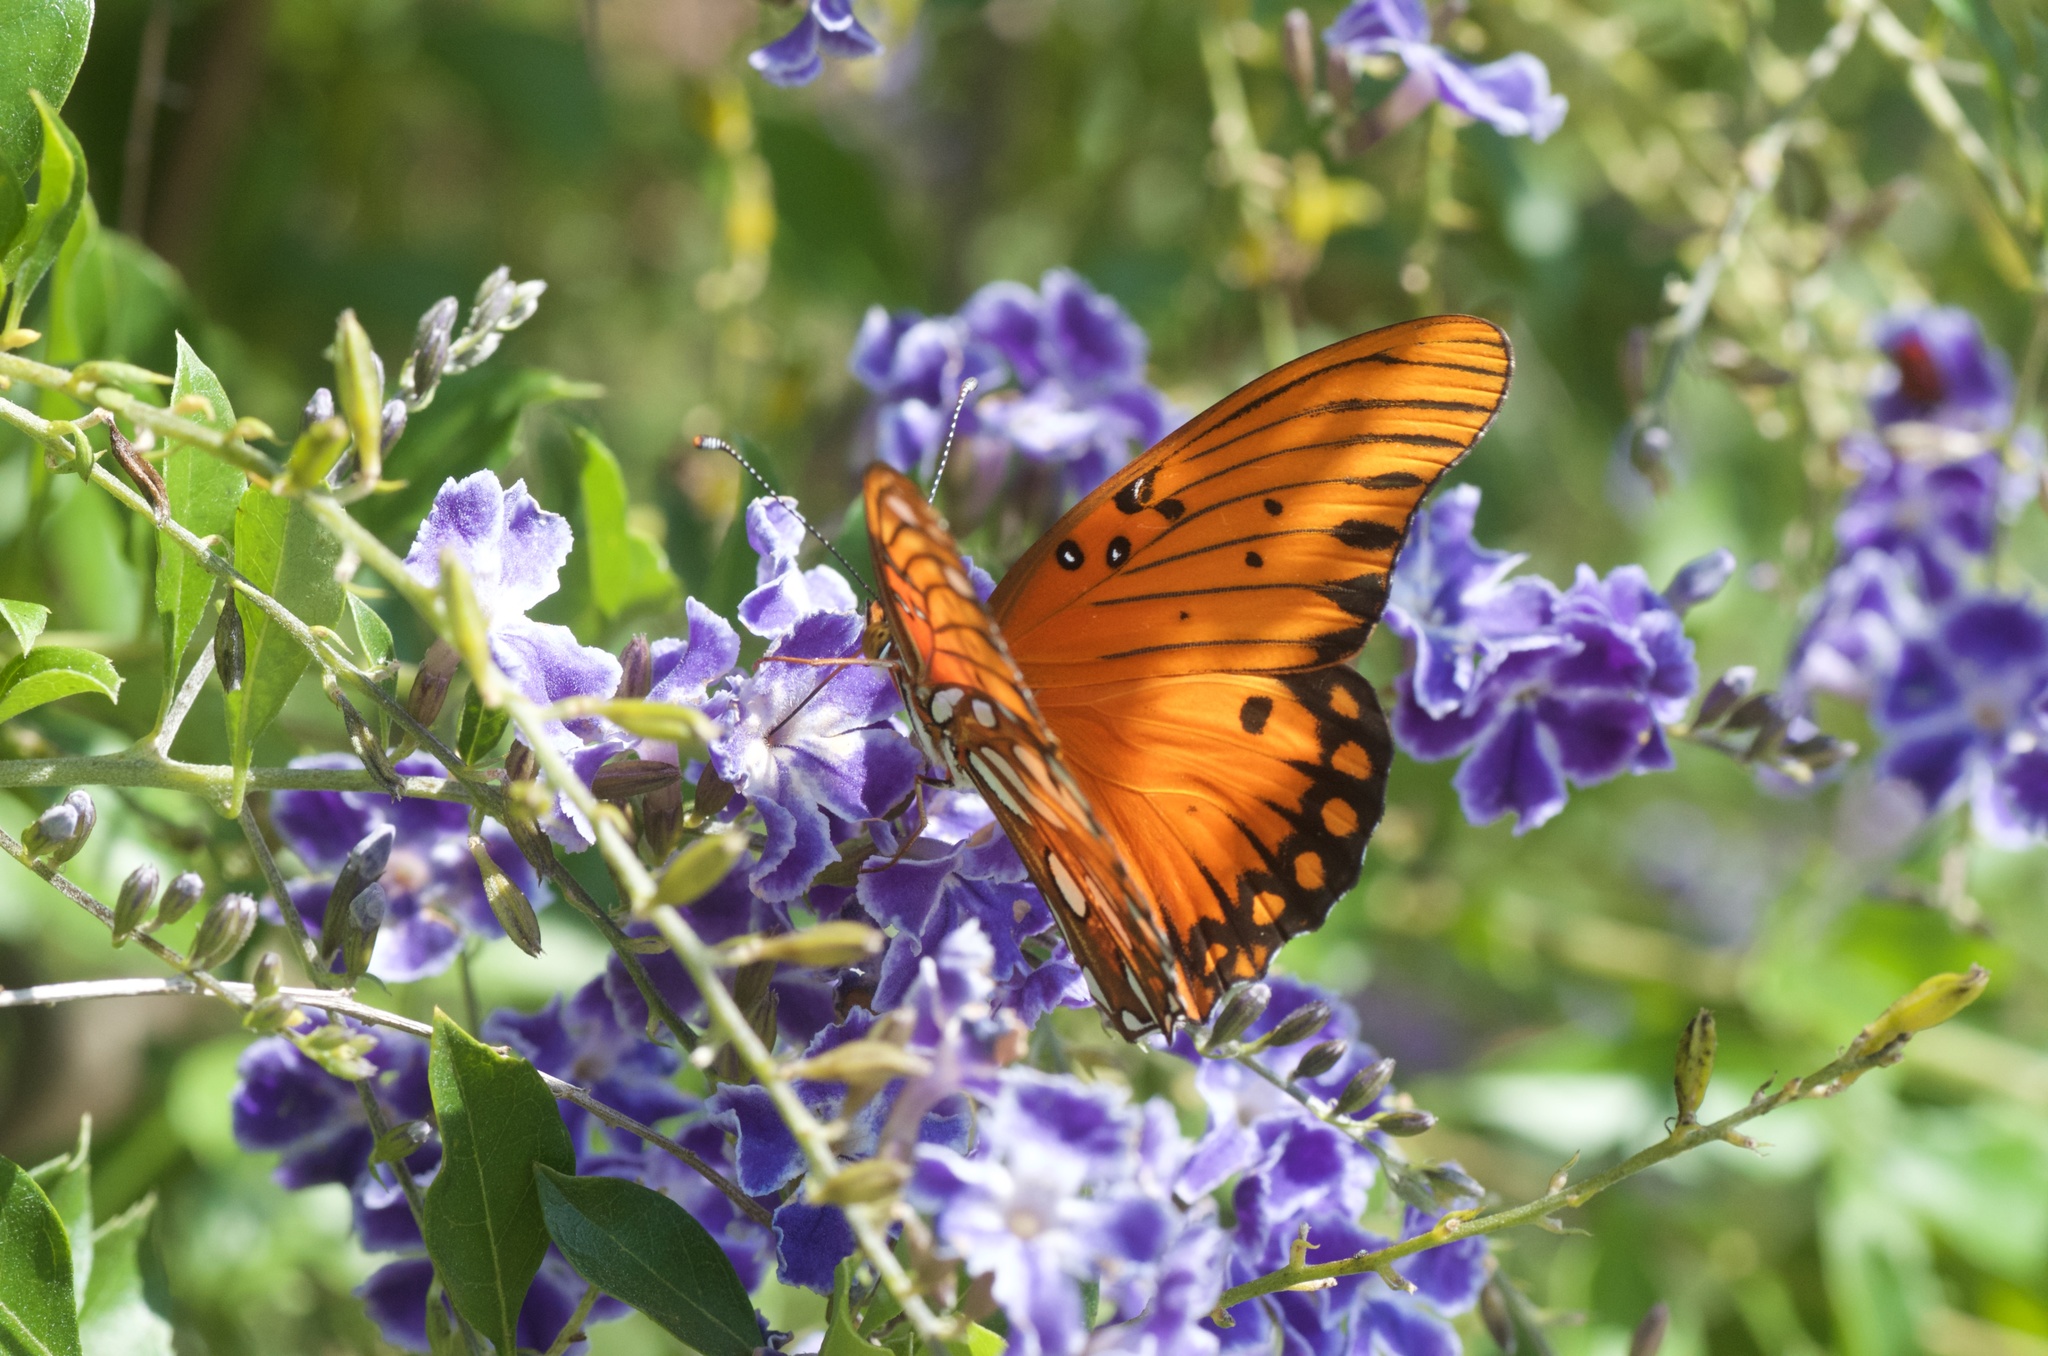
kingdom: Animalia
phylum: Arthropoda
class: Insecta
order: Lepidoptera
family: Nymphalidae
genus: Dione
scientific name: Dione vanillae
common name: Gulf fritillary
